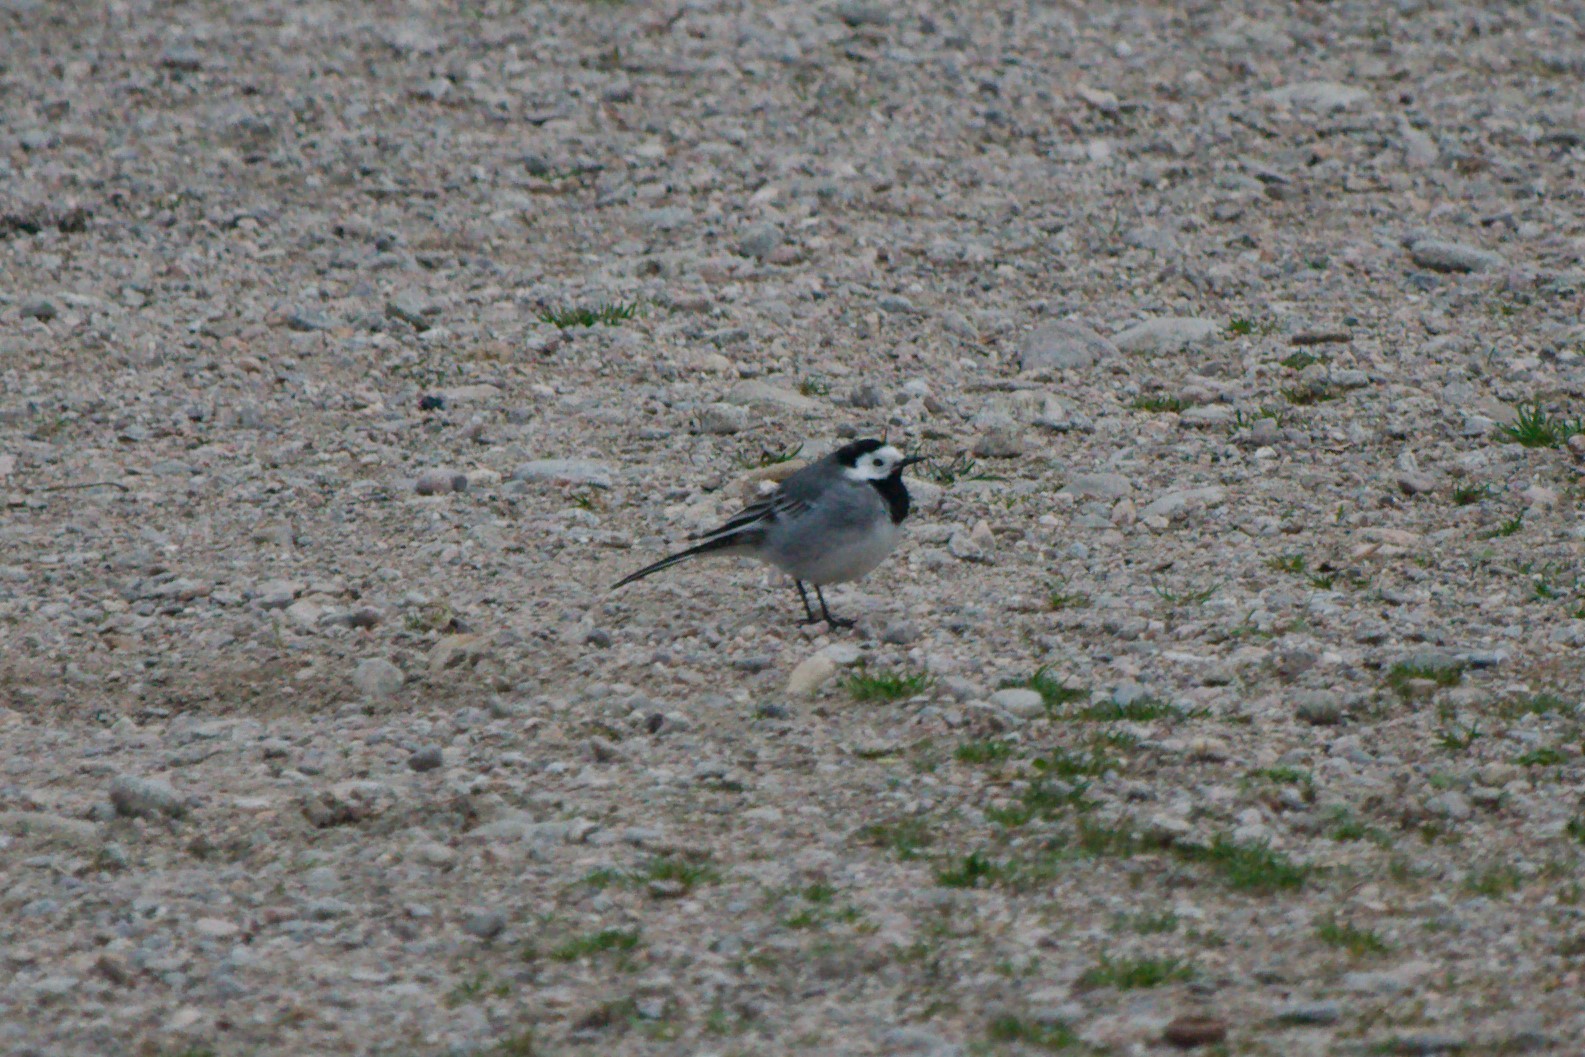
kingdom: Animalia
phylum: Chordata
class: Aves
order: Passeriformes
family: Motacillidae
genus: Motacilla
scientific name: Motacilla alba
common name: White wagtail
